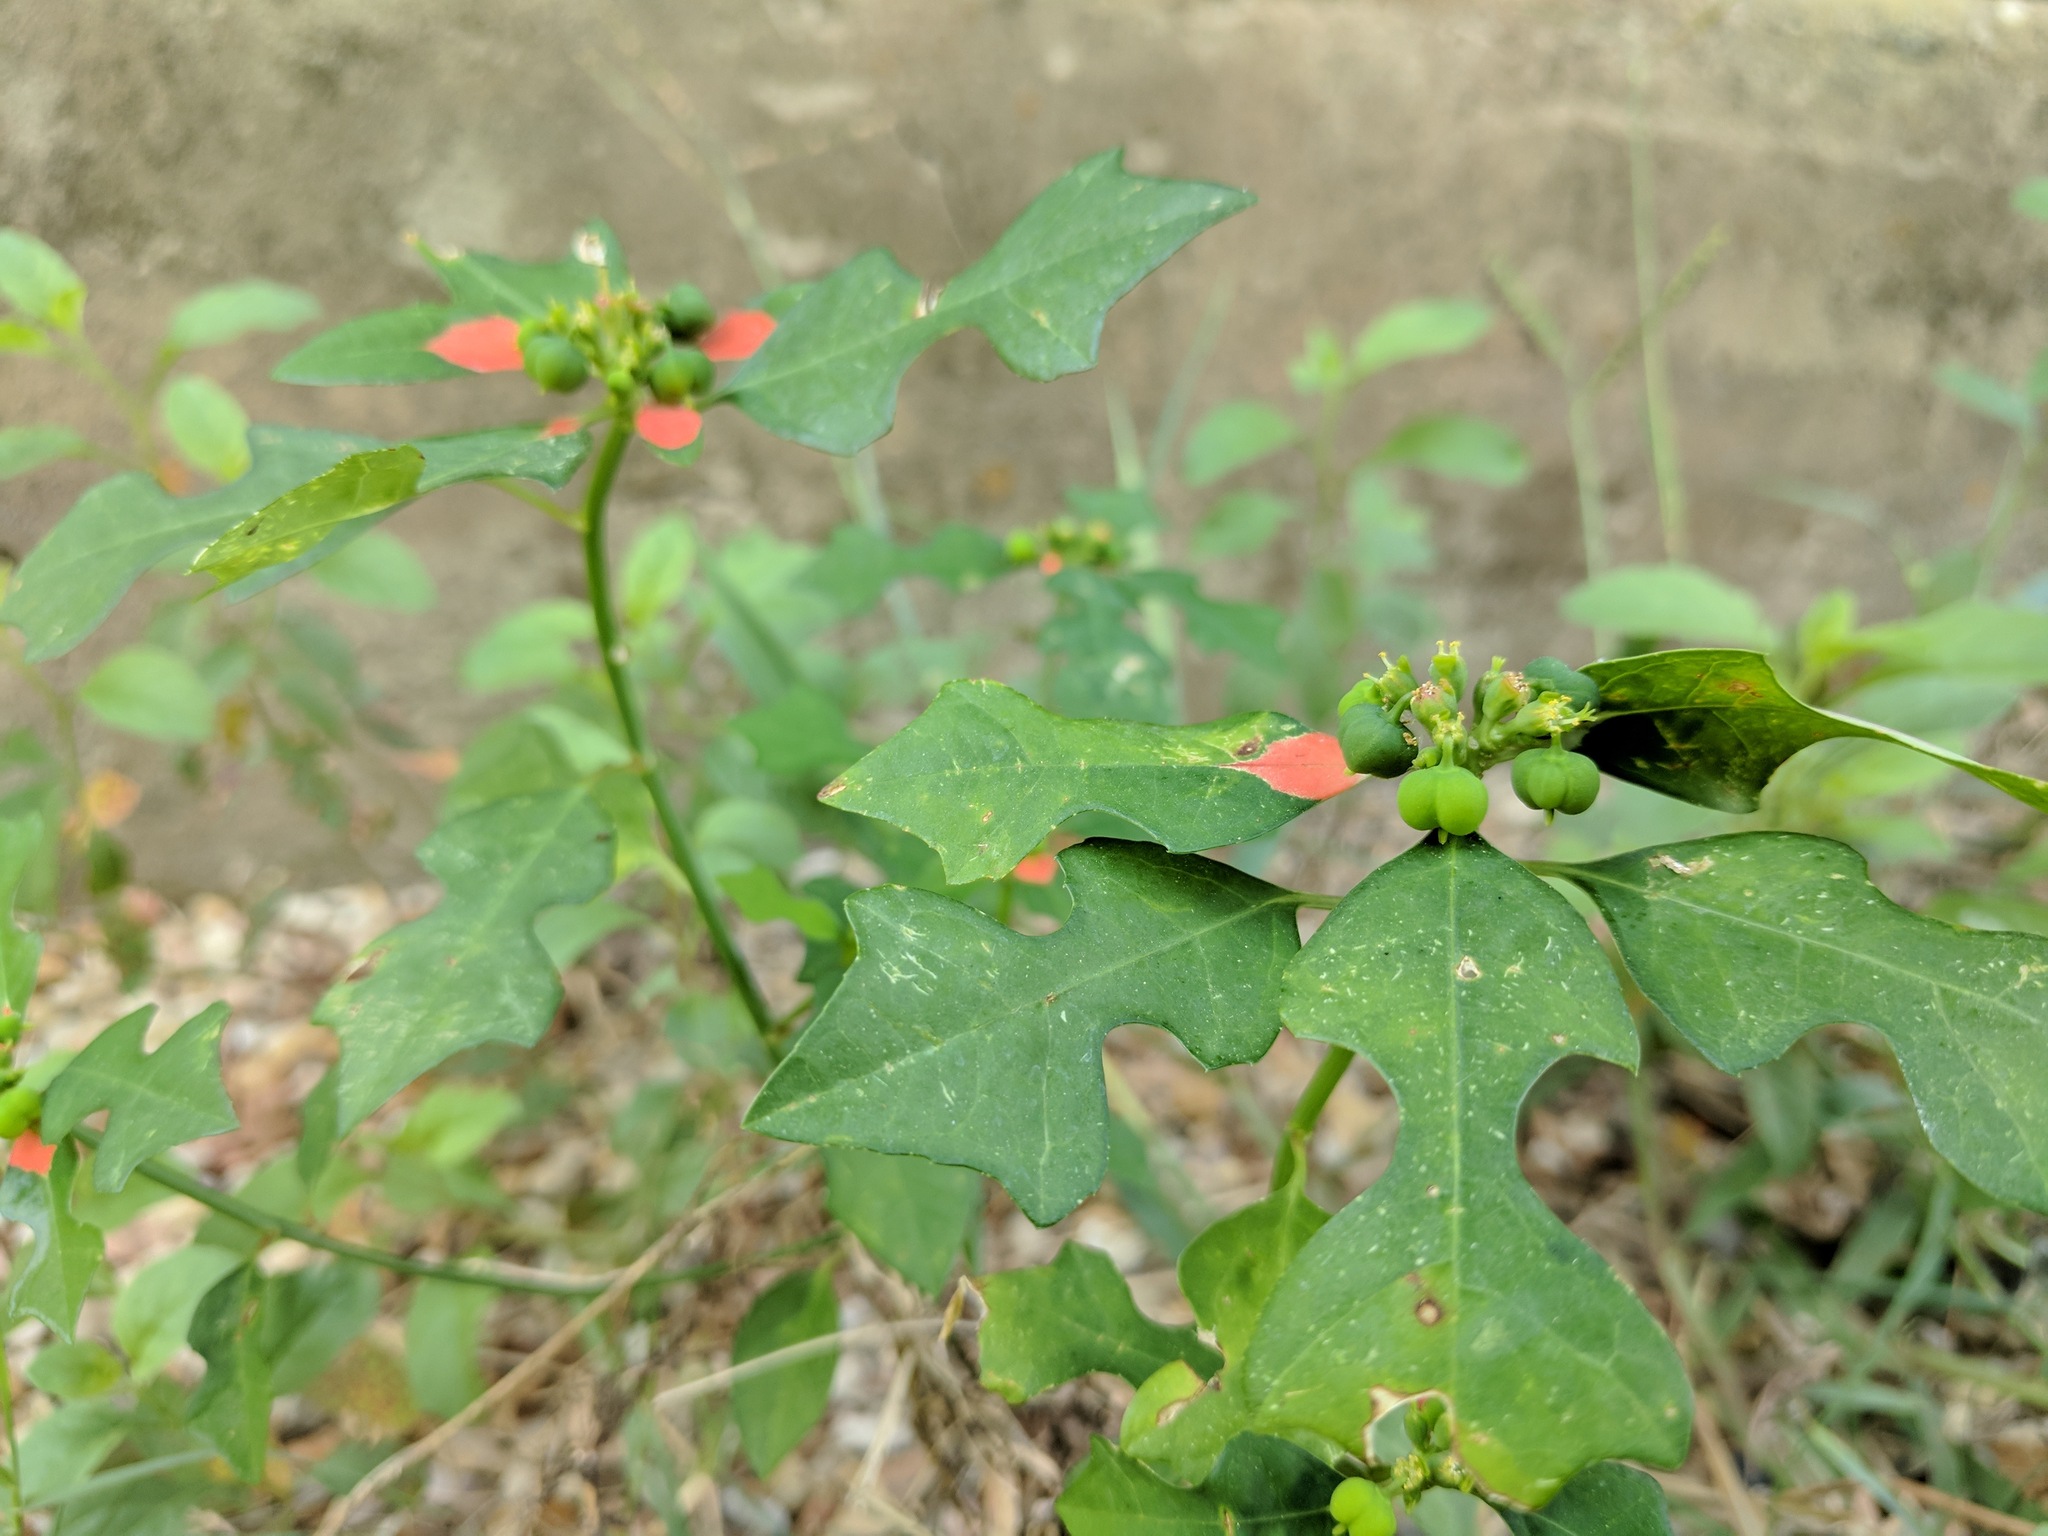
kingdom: Plantae
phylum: Tracheophyta
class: Magnoliopsida
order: Malpighiales
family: Euphorbiaceae
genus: Euphorbia
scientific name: Euphorbia heterophylla
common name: Mexican fireplant
